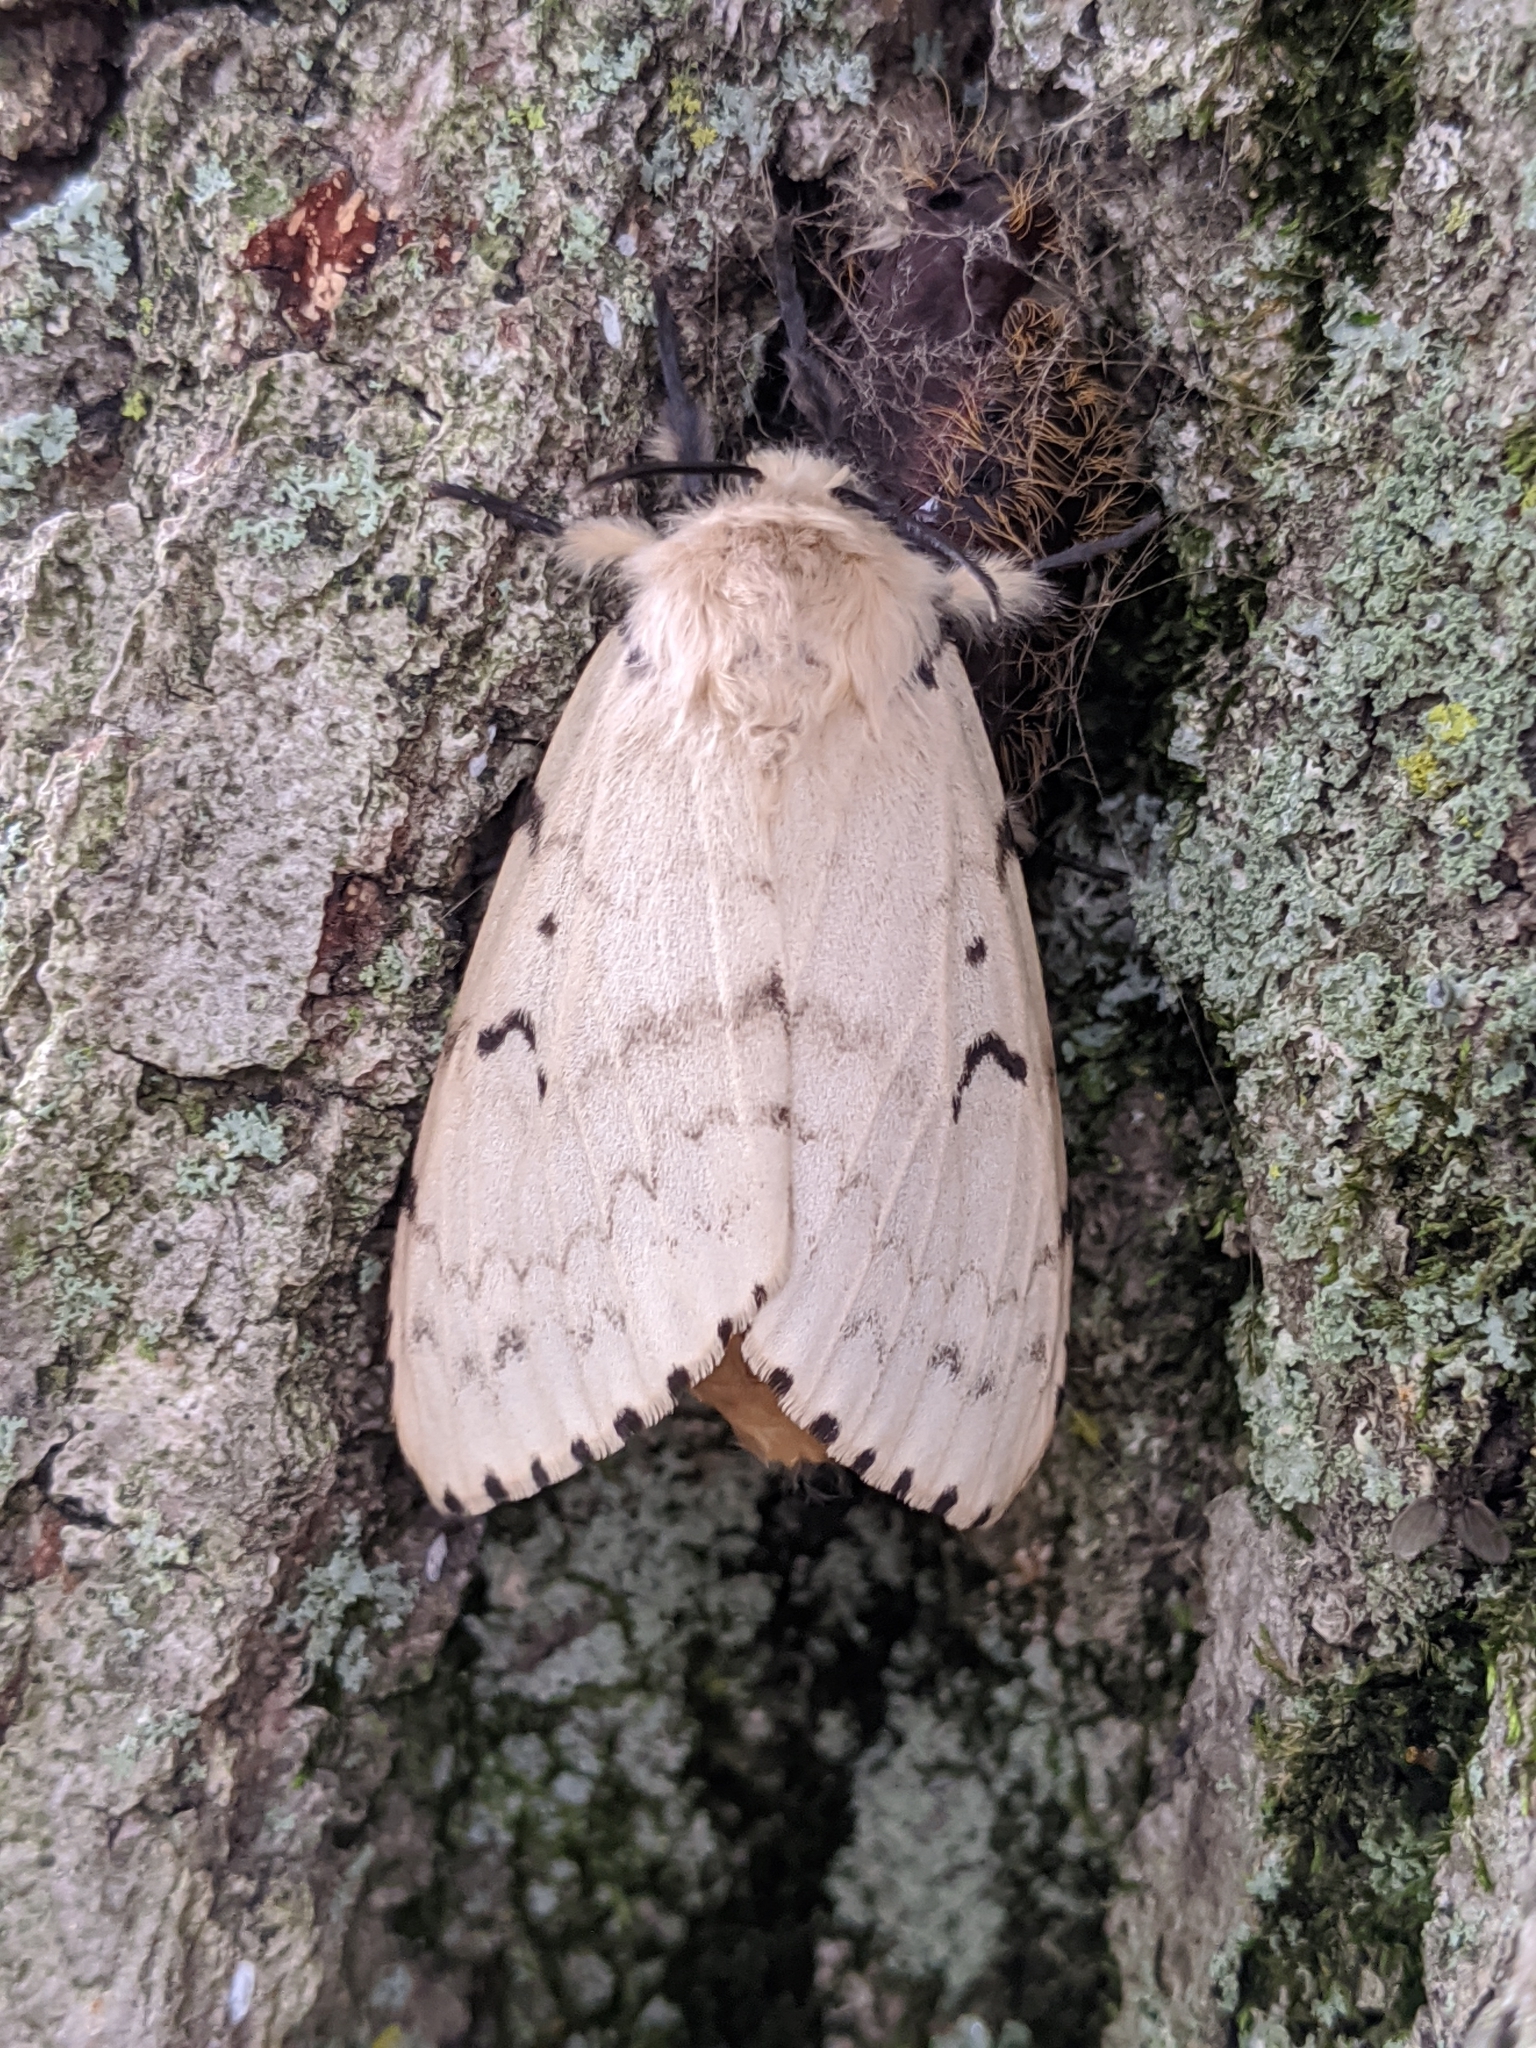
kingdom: Animalia
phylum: Arthropoda
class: Insecta
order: Lepidoptera
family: Erebidae
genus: Lymantria
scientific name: Lymantria dispar
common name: Gypsy moth
